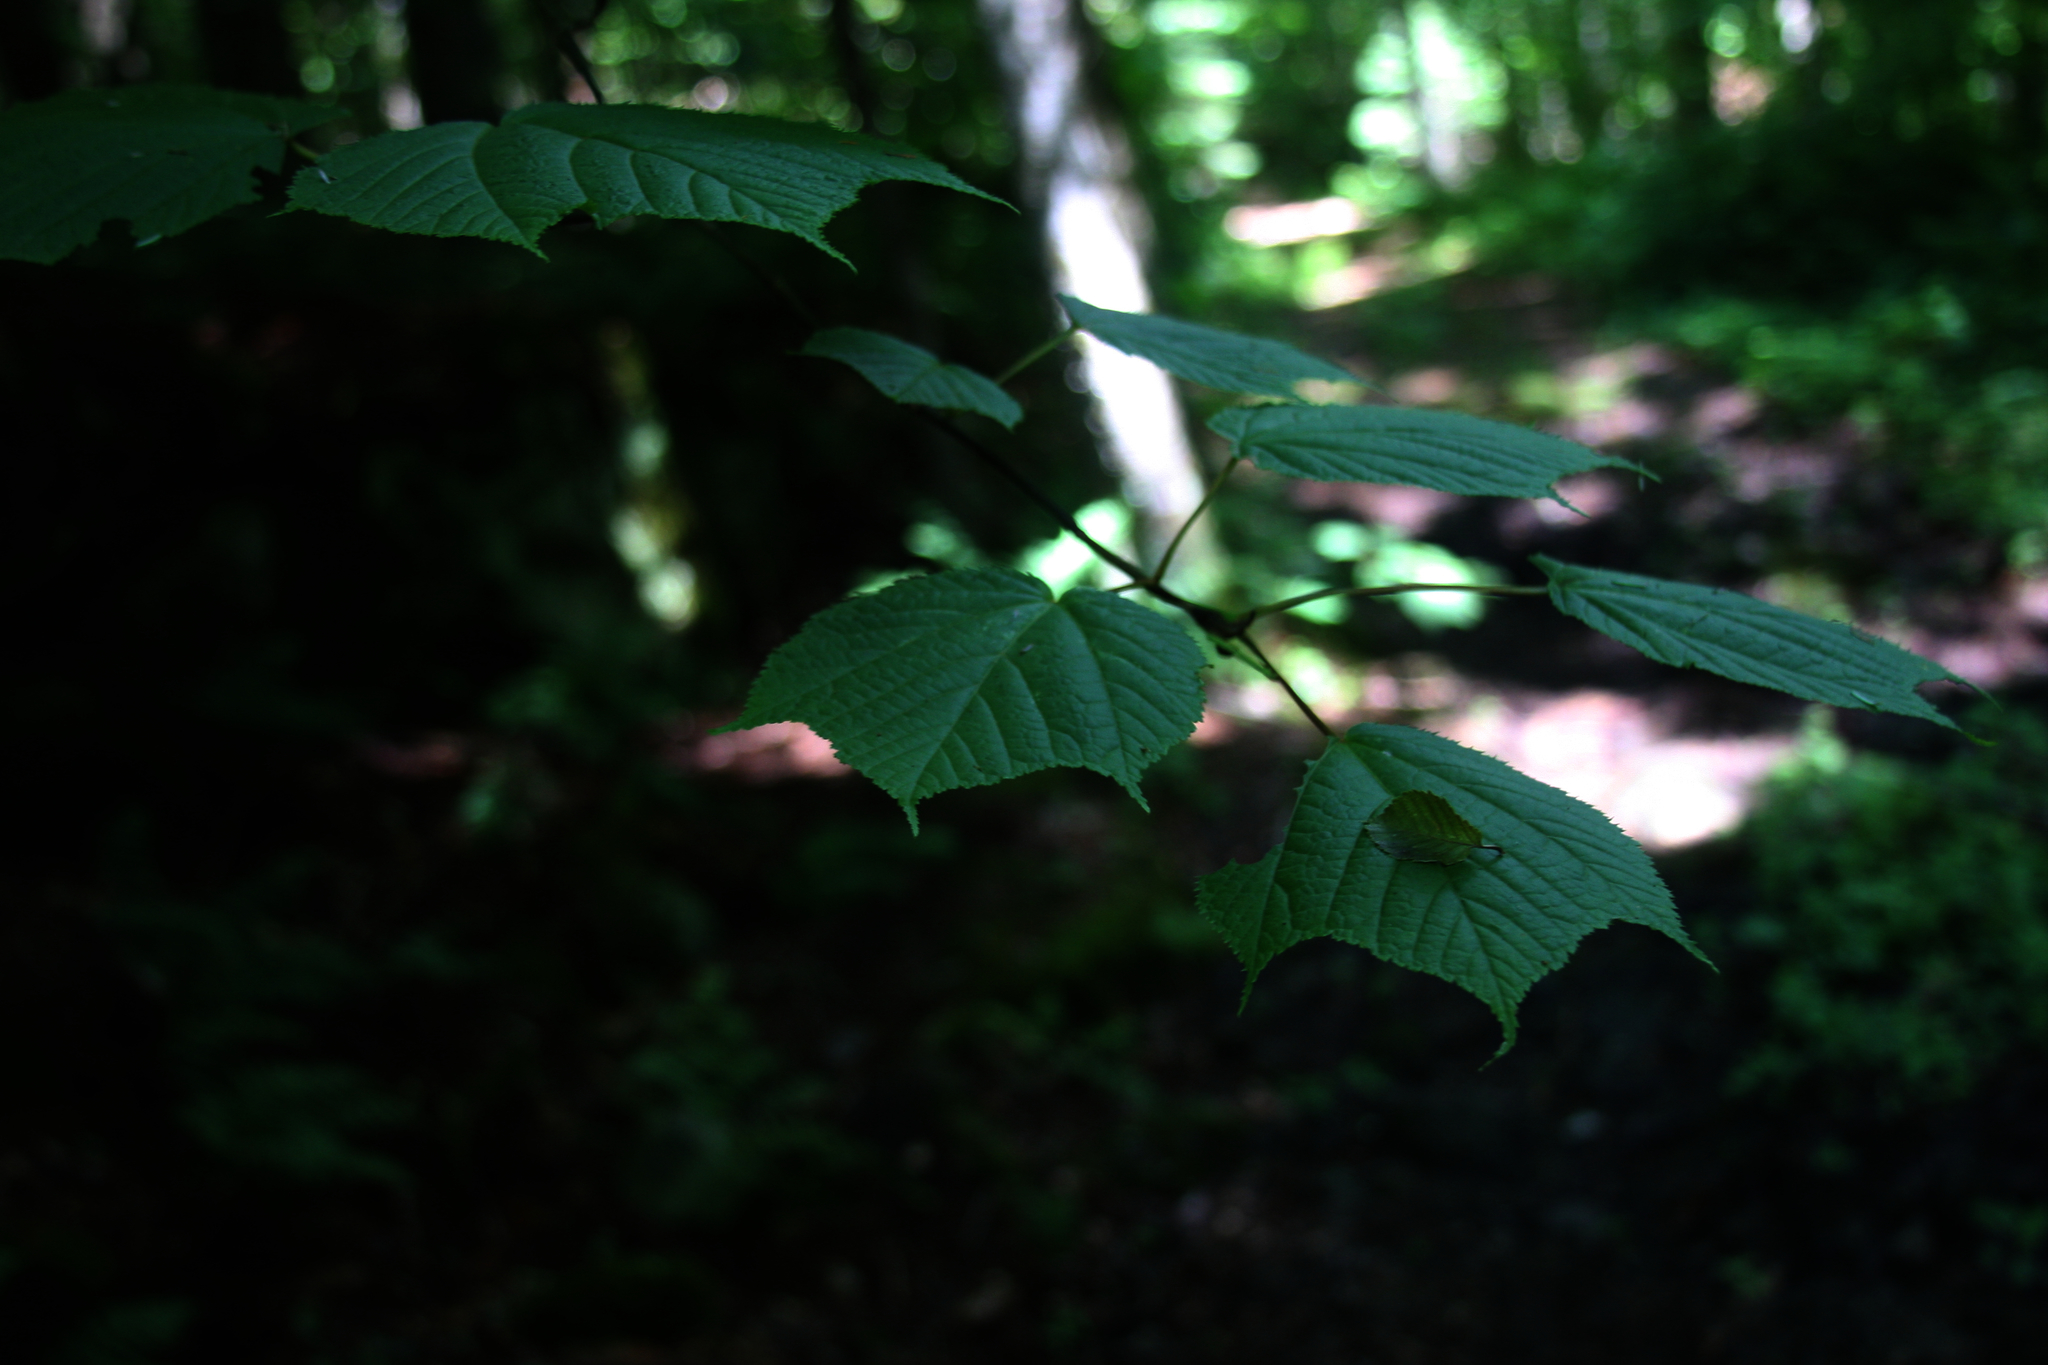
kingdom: Plantae
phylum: Tracheophyta
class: Magnoliopsida
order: Sapindales
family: Sapindaceae
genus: Acer
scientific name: Acer pensylvanicum
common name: Moosewood
